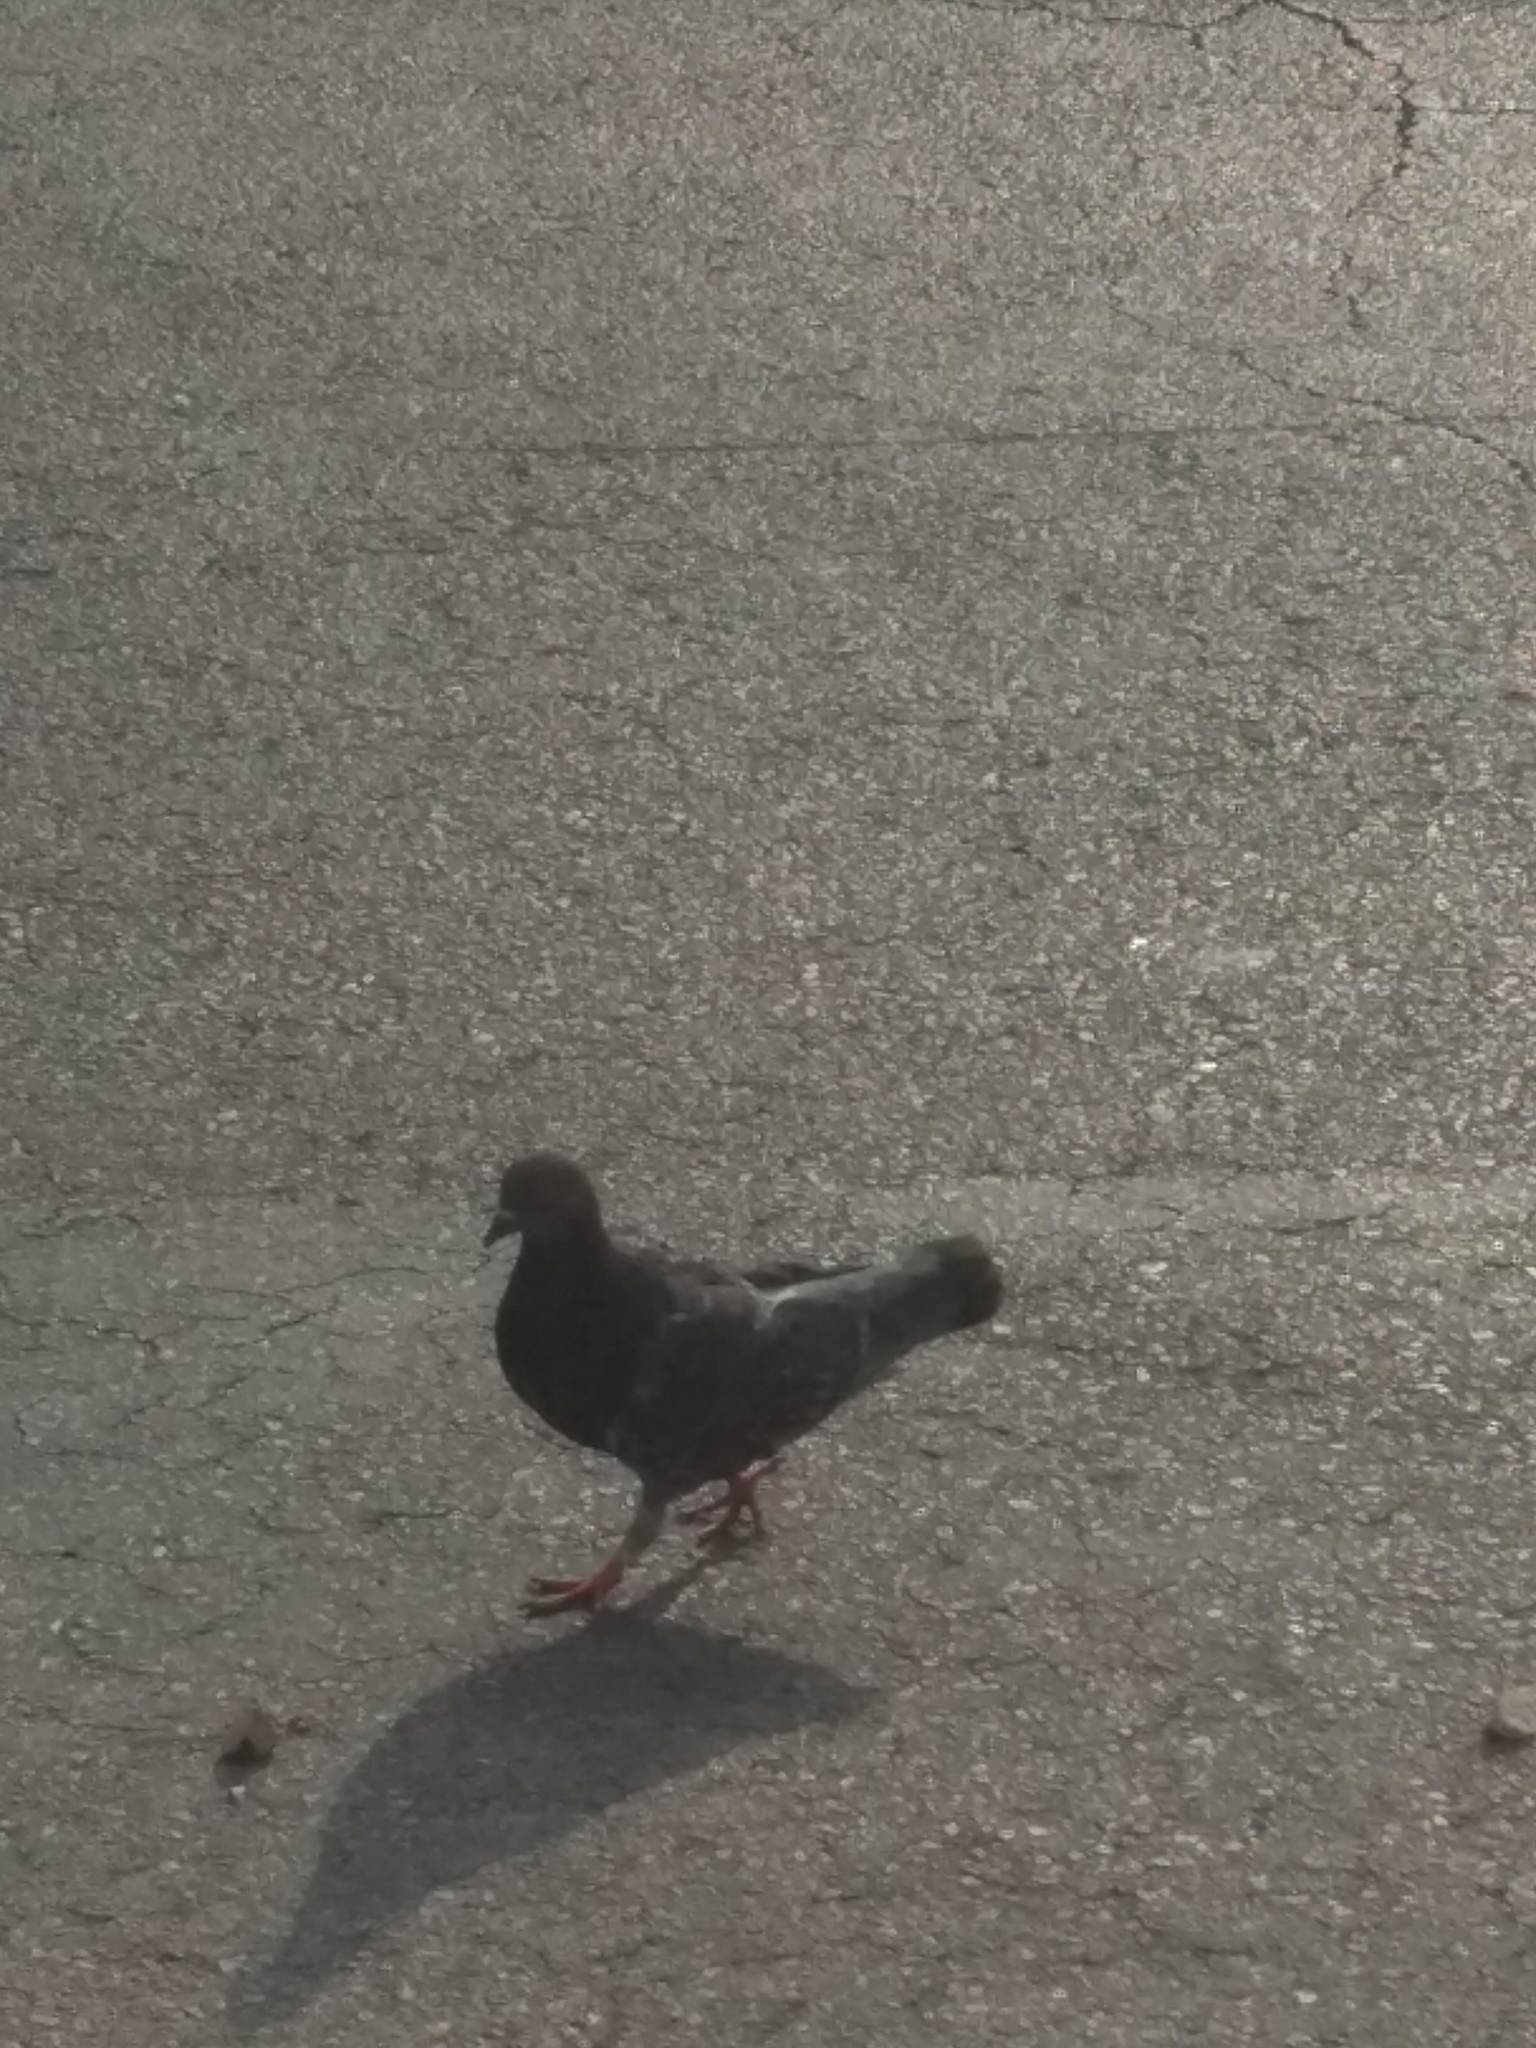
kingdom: Animalia
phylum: Chordata
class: Aves
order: Columbiformes
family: Columbidae
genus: Columba
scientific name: Columba livia
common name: Rock pigeon
